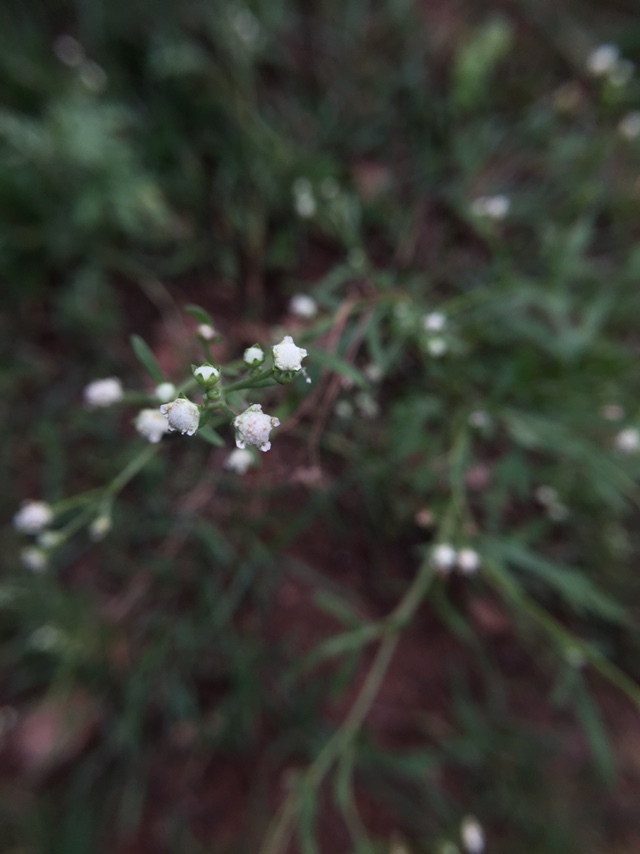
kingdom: Plantae
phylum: Tracheophyta
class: Magnoliopsida
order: Asterales
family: Asteraceae
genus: Parthenium
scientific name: Parthenium hysterophorus
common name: Santa maria feverfew
